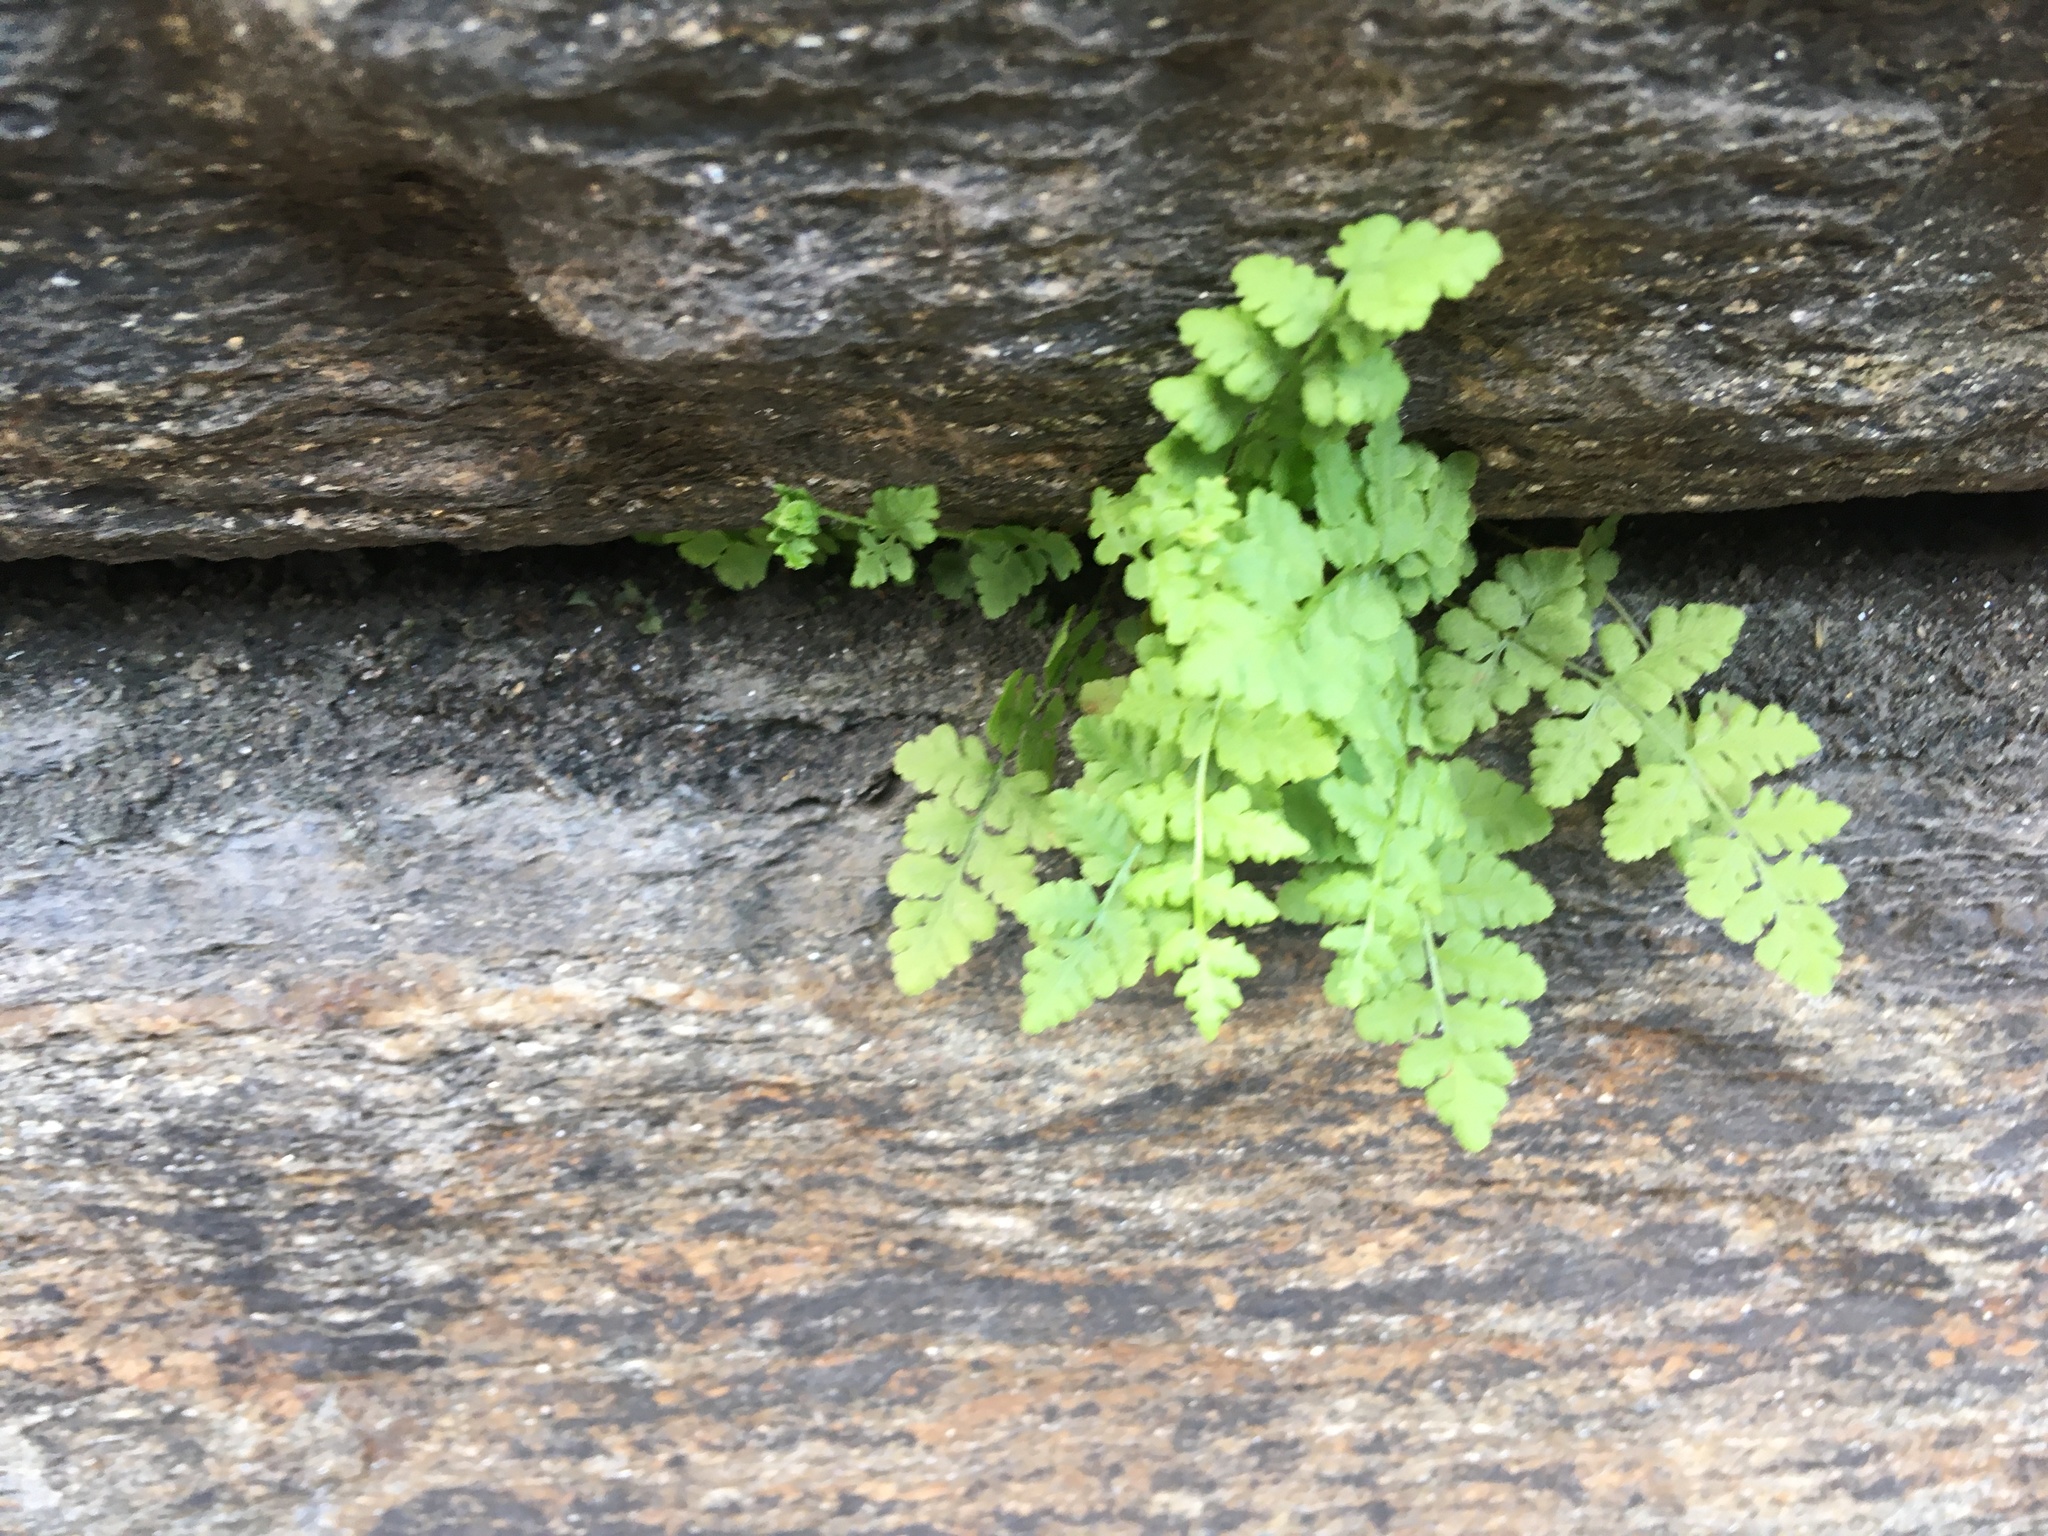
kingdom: Plantae
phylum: Tracheophyta
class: Polypodiopsida
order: Polypodiales
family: Woodsiaceae
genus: Physematium
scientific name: Physematium obtusum
